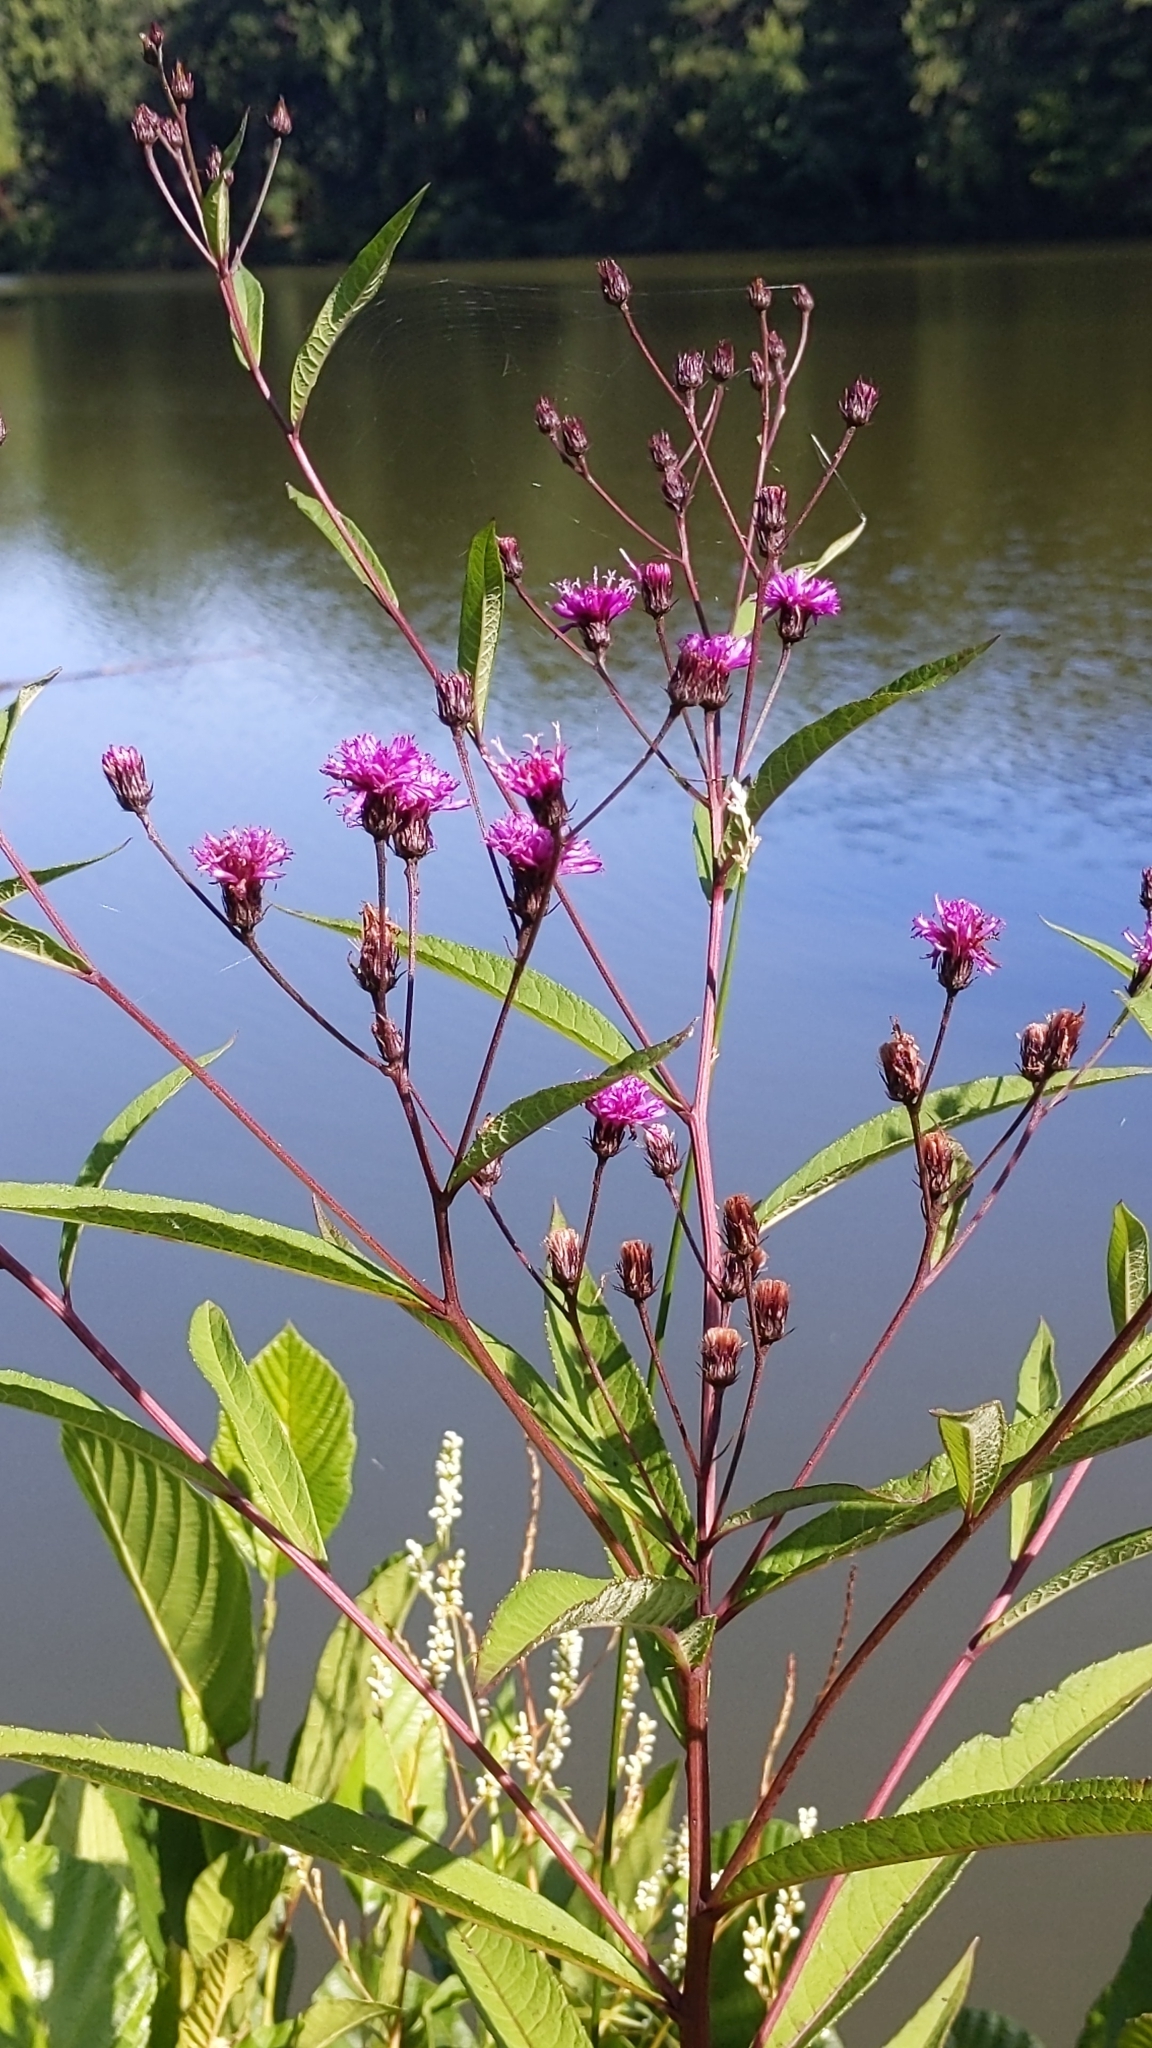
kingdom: Plantae
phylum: Tracheophyta
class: Magnoliopsida
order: Asterales
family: Asteraceae
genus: Vernonia
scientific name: Vernonia noveboracensis
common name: New york ironweed
